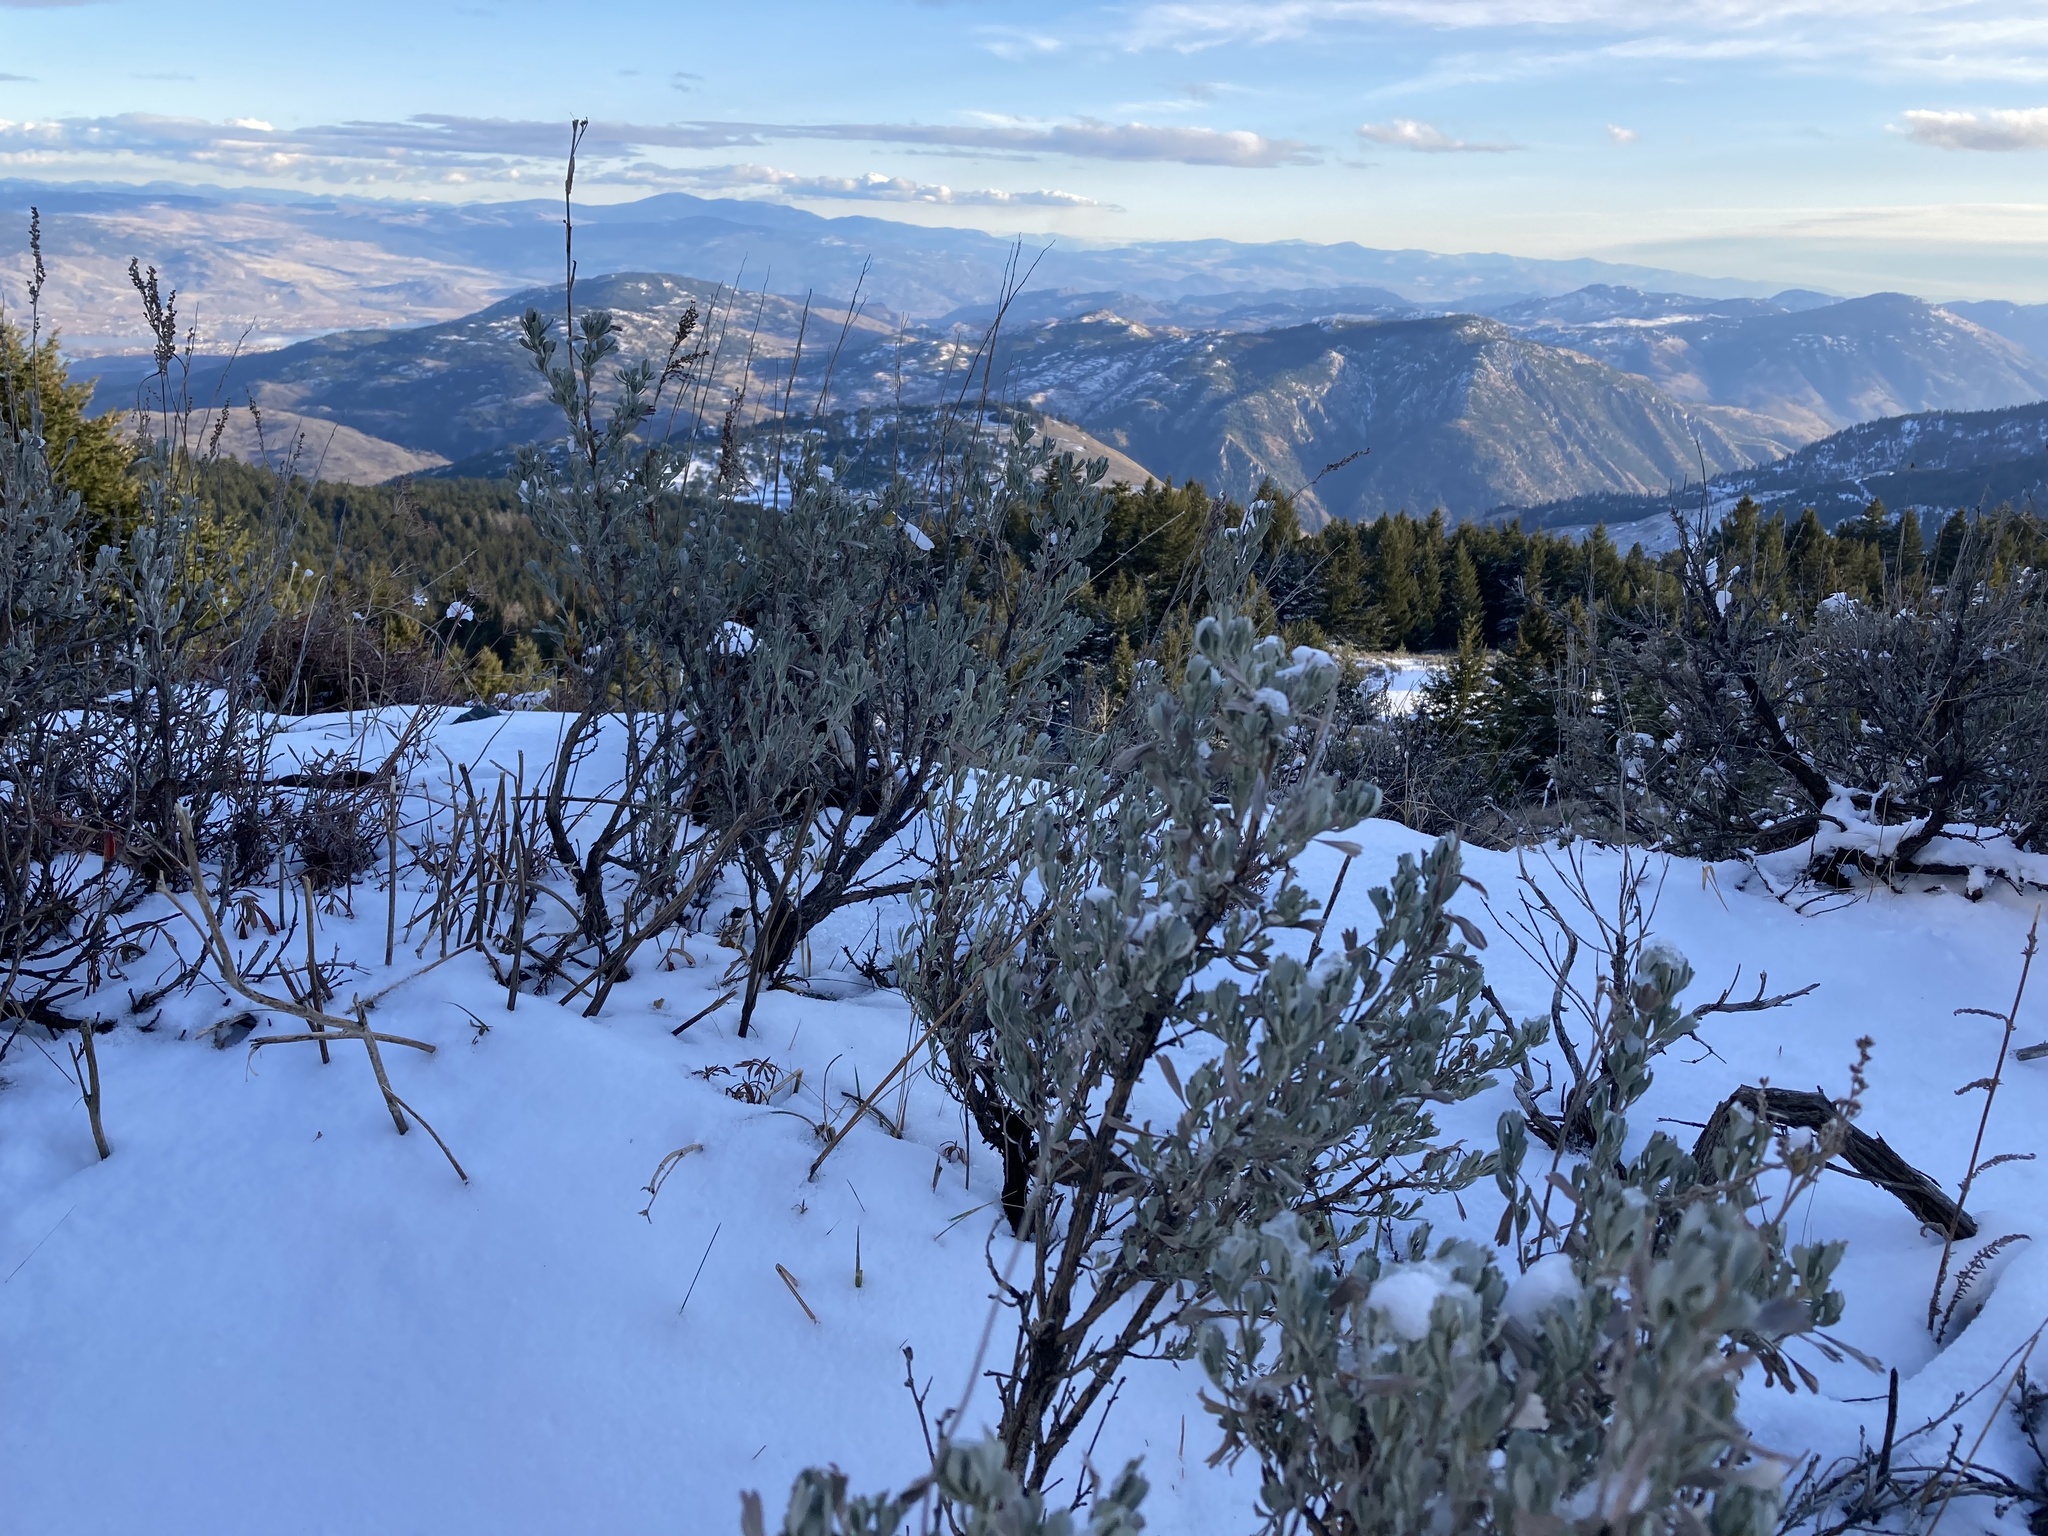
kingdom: Plantae
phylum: Tracheophyta
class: Magnoliopsida
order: Asterales
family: Asteraceae
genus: Artemisia
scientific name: Artemisia tridentata
